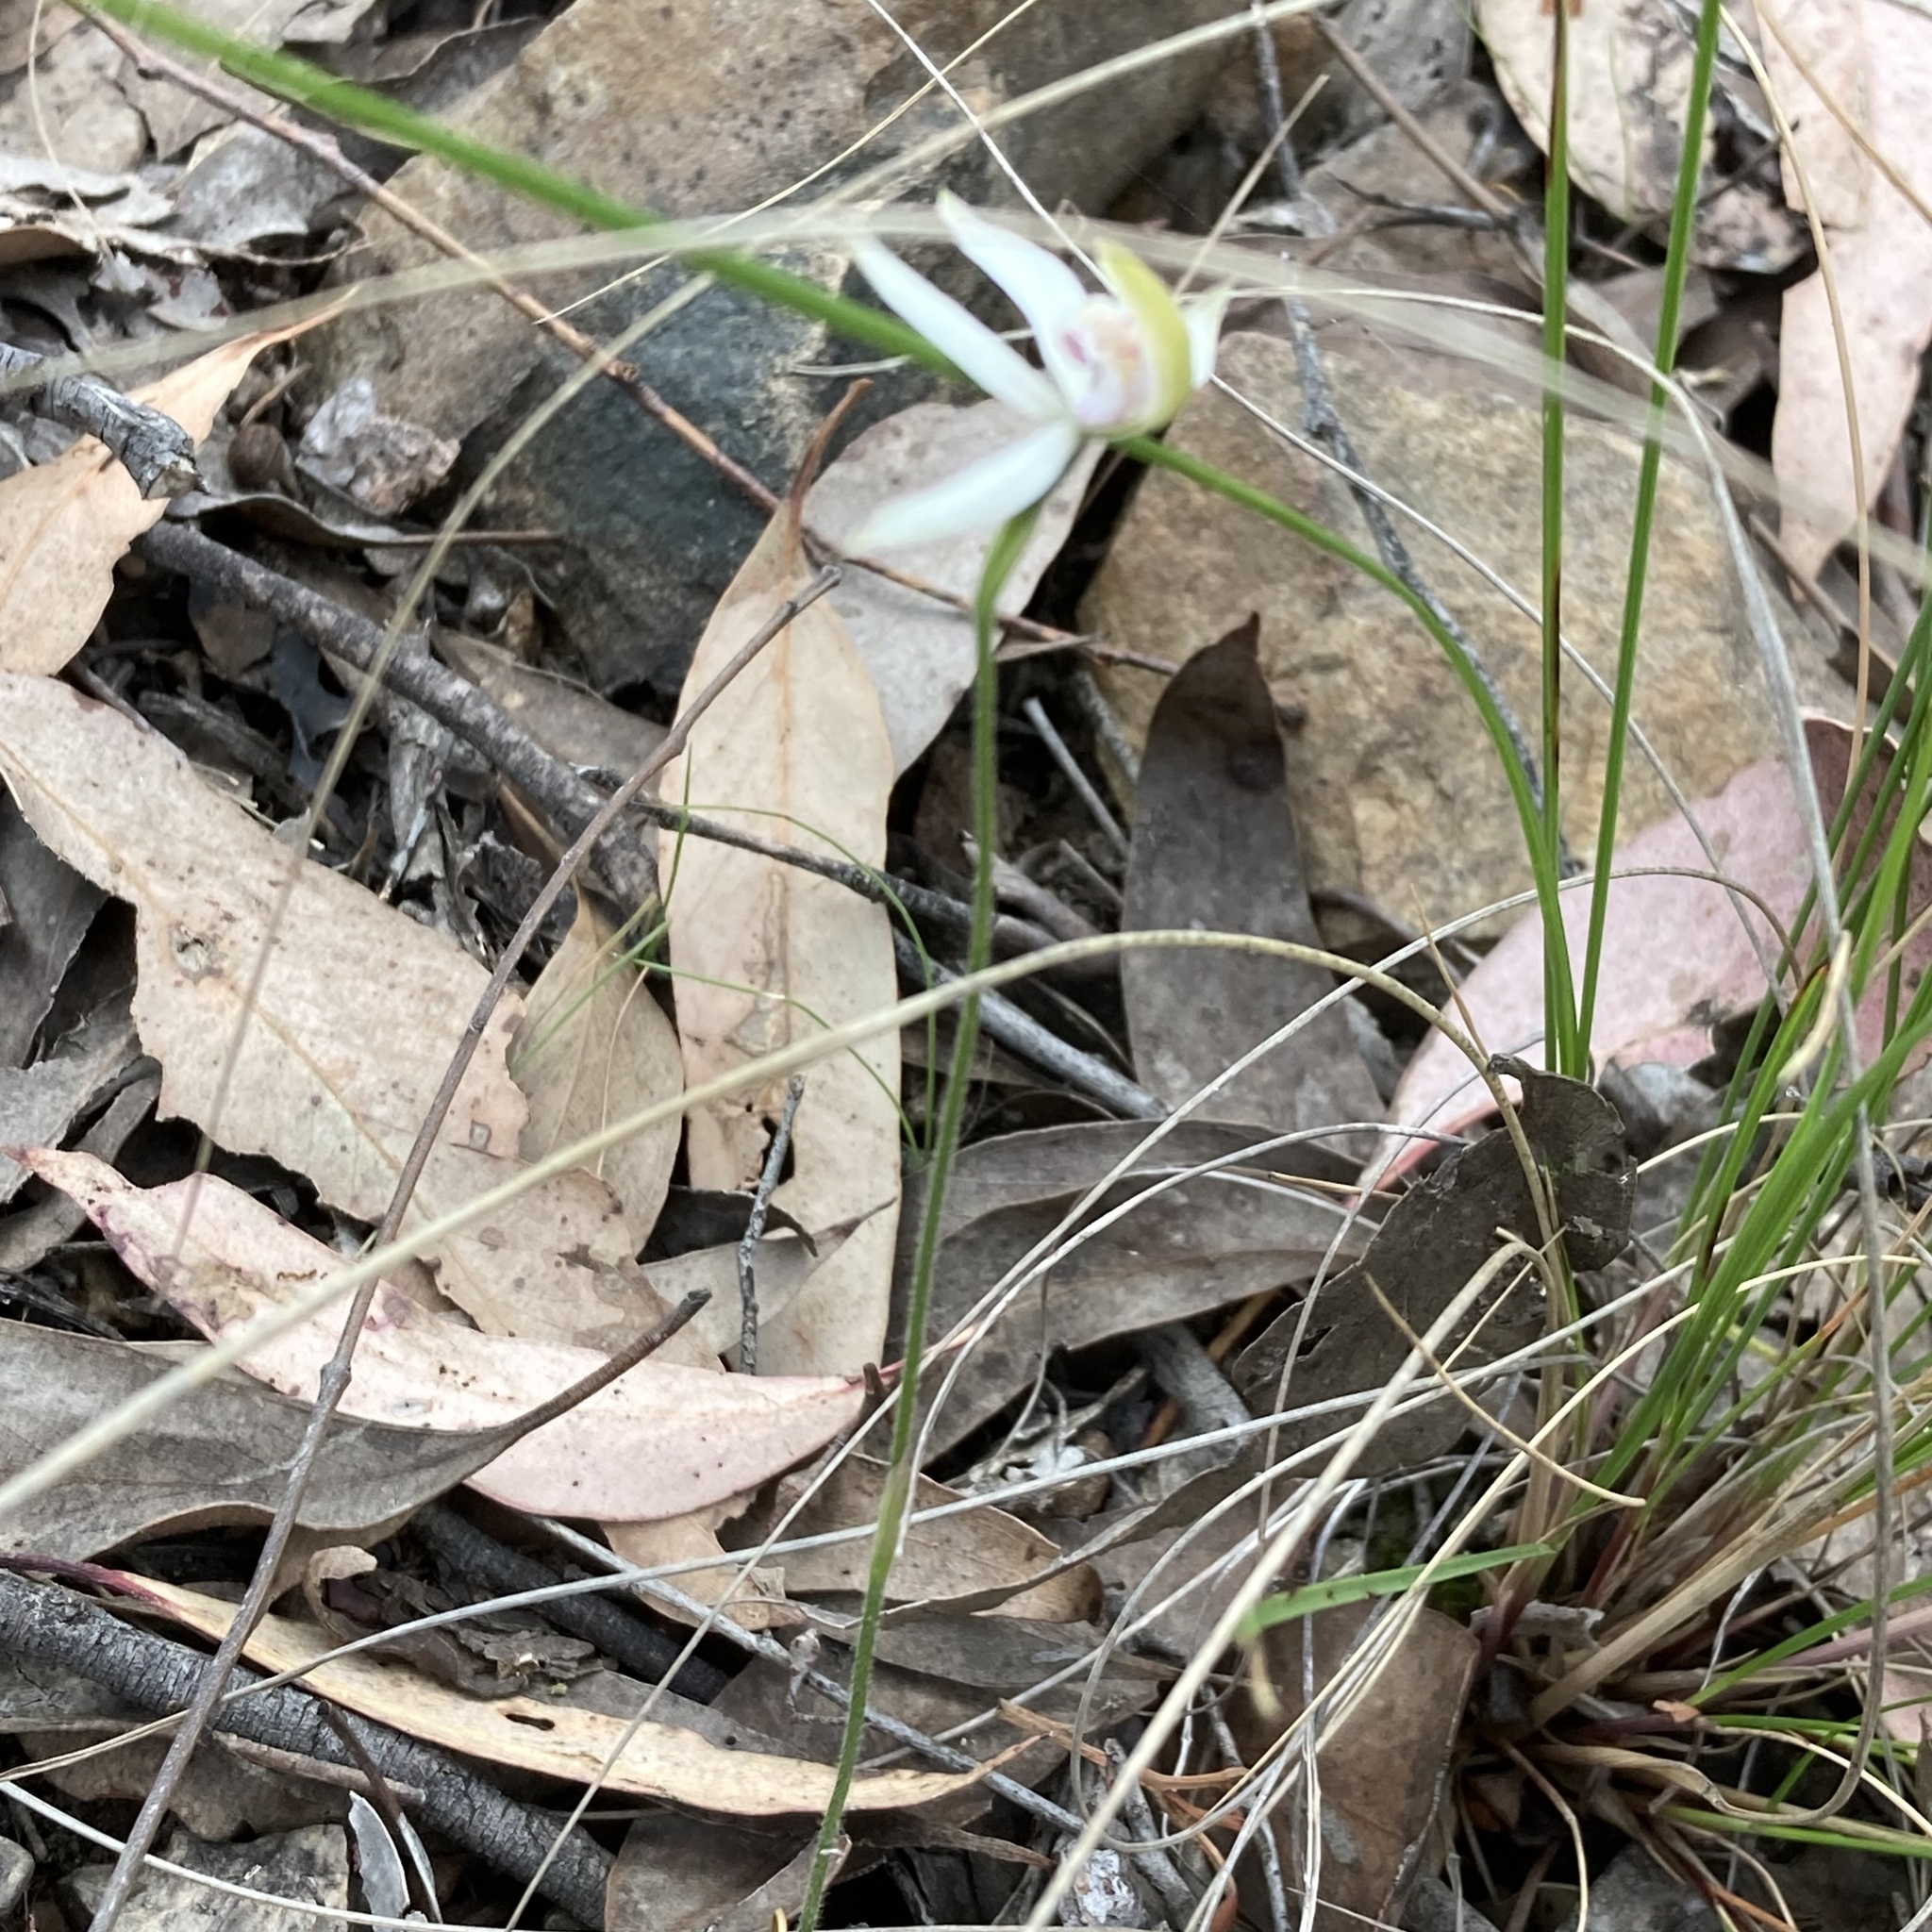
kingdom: Plantae
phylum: Tracheophyta
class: Liliopsida
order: Asparagales
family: Orchidaceae
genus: Caladenia
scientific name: Caladenia moschata
